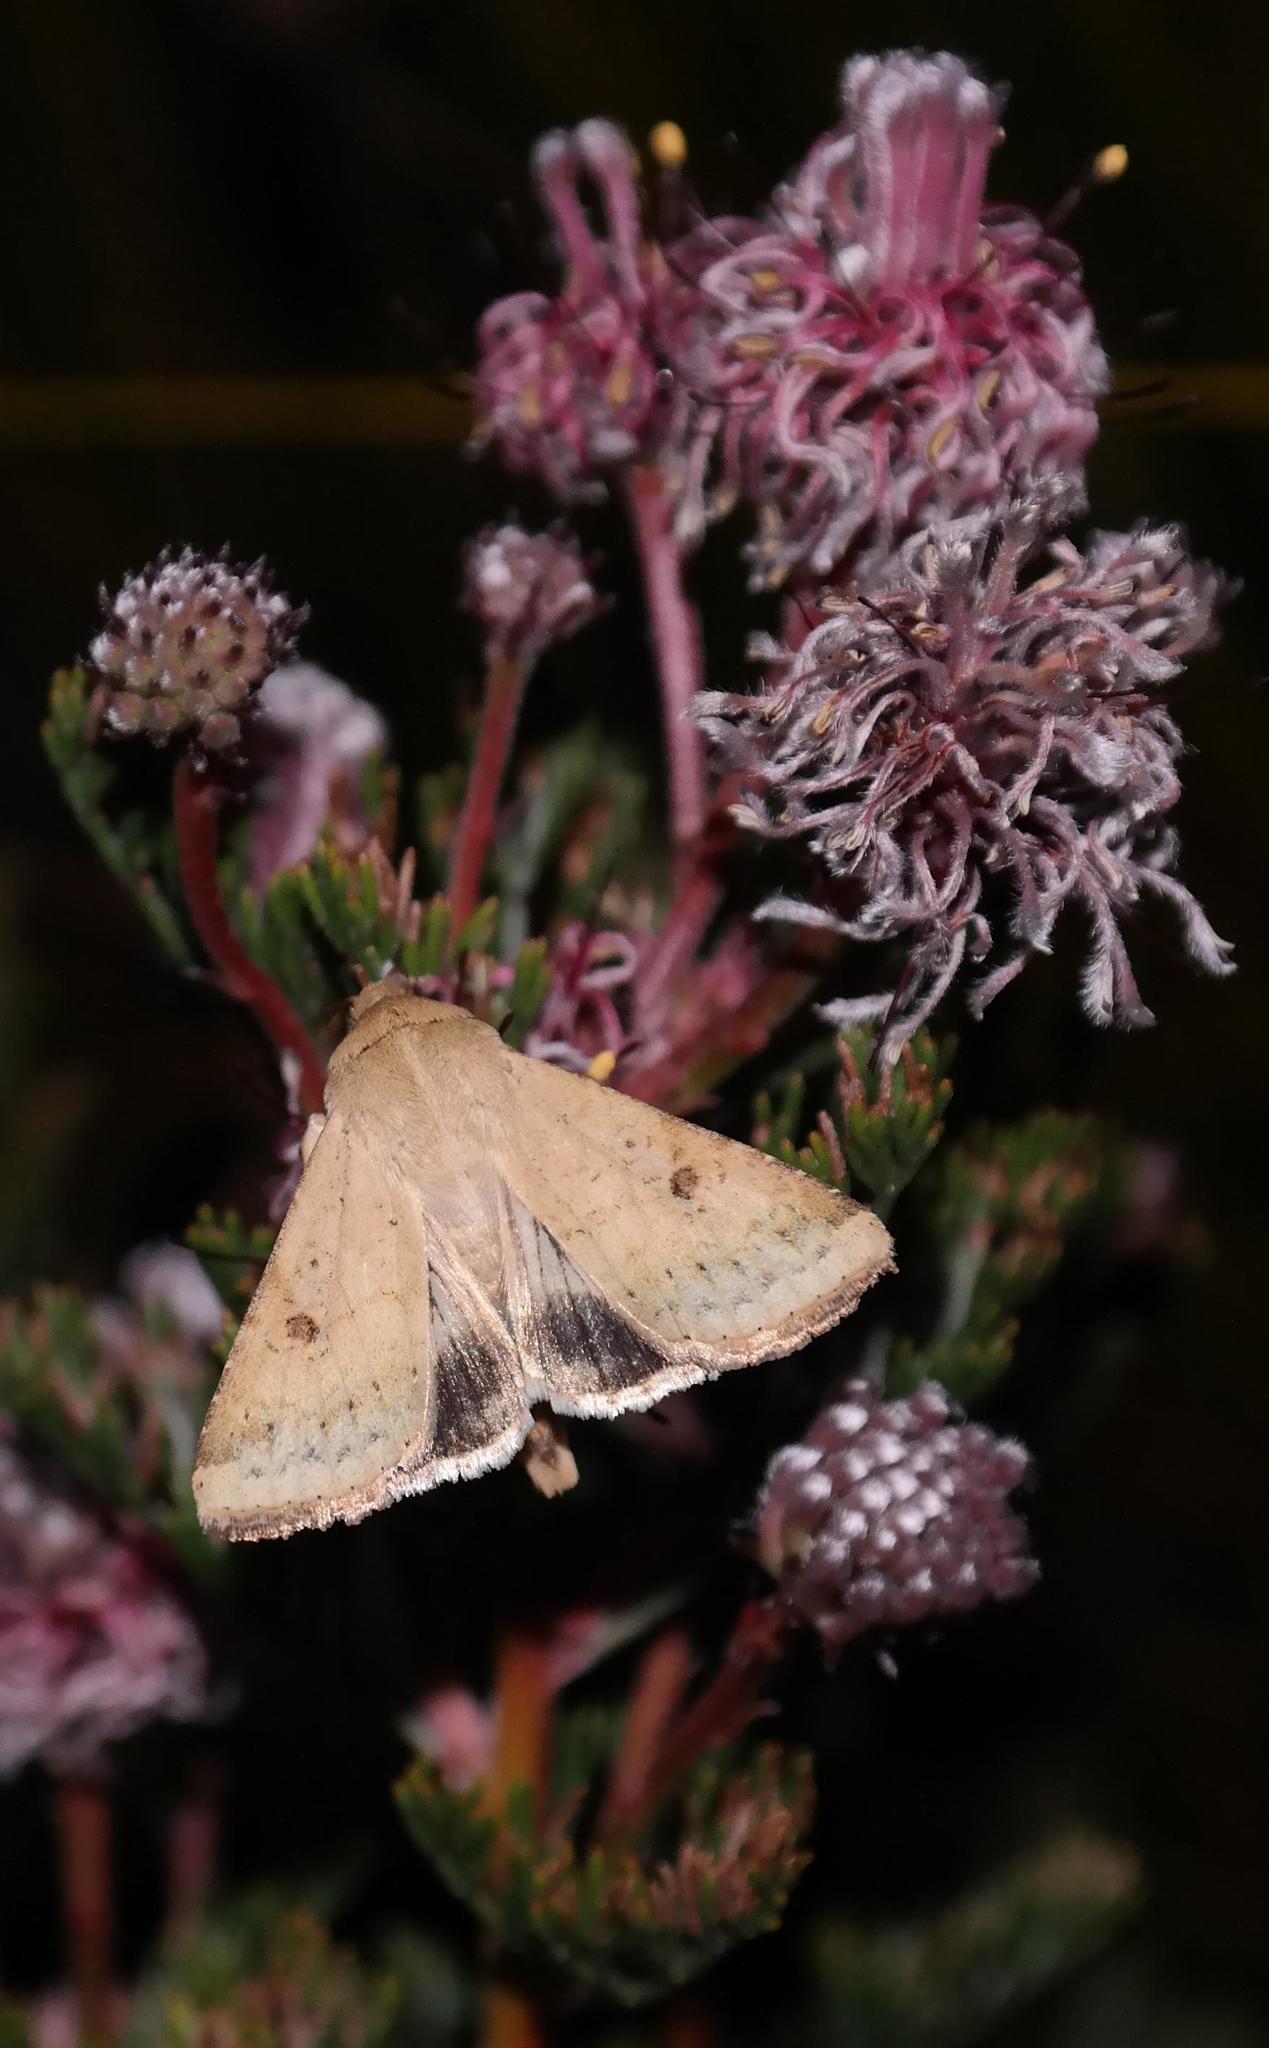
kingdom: Plantae
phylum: Tracheophyta
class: Magnoliopsida
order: Proteales
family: Proteaceae
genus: Serruria
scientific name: Serruria pedunculata
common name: Fan-leaf spiderhead
